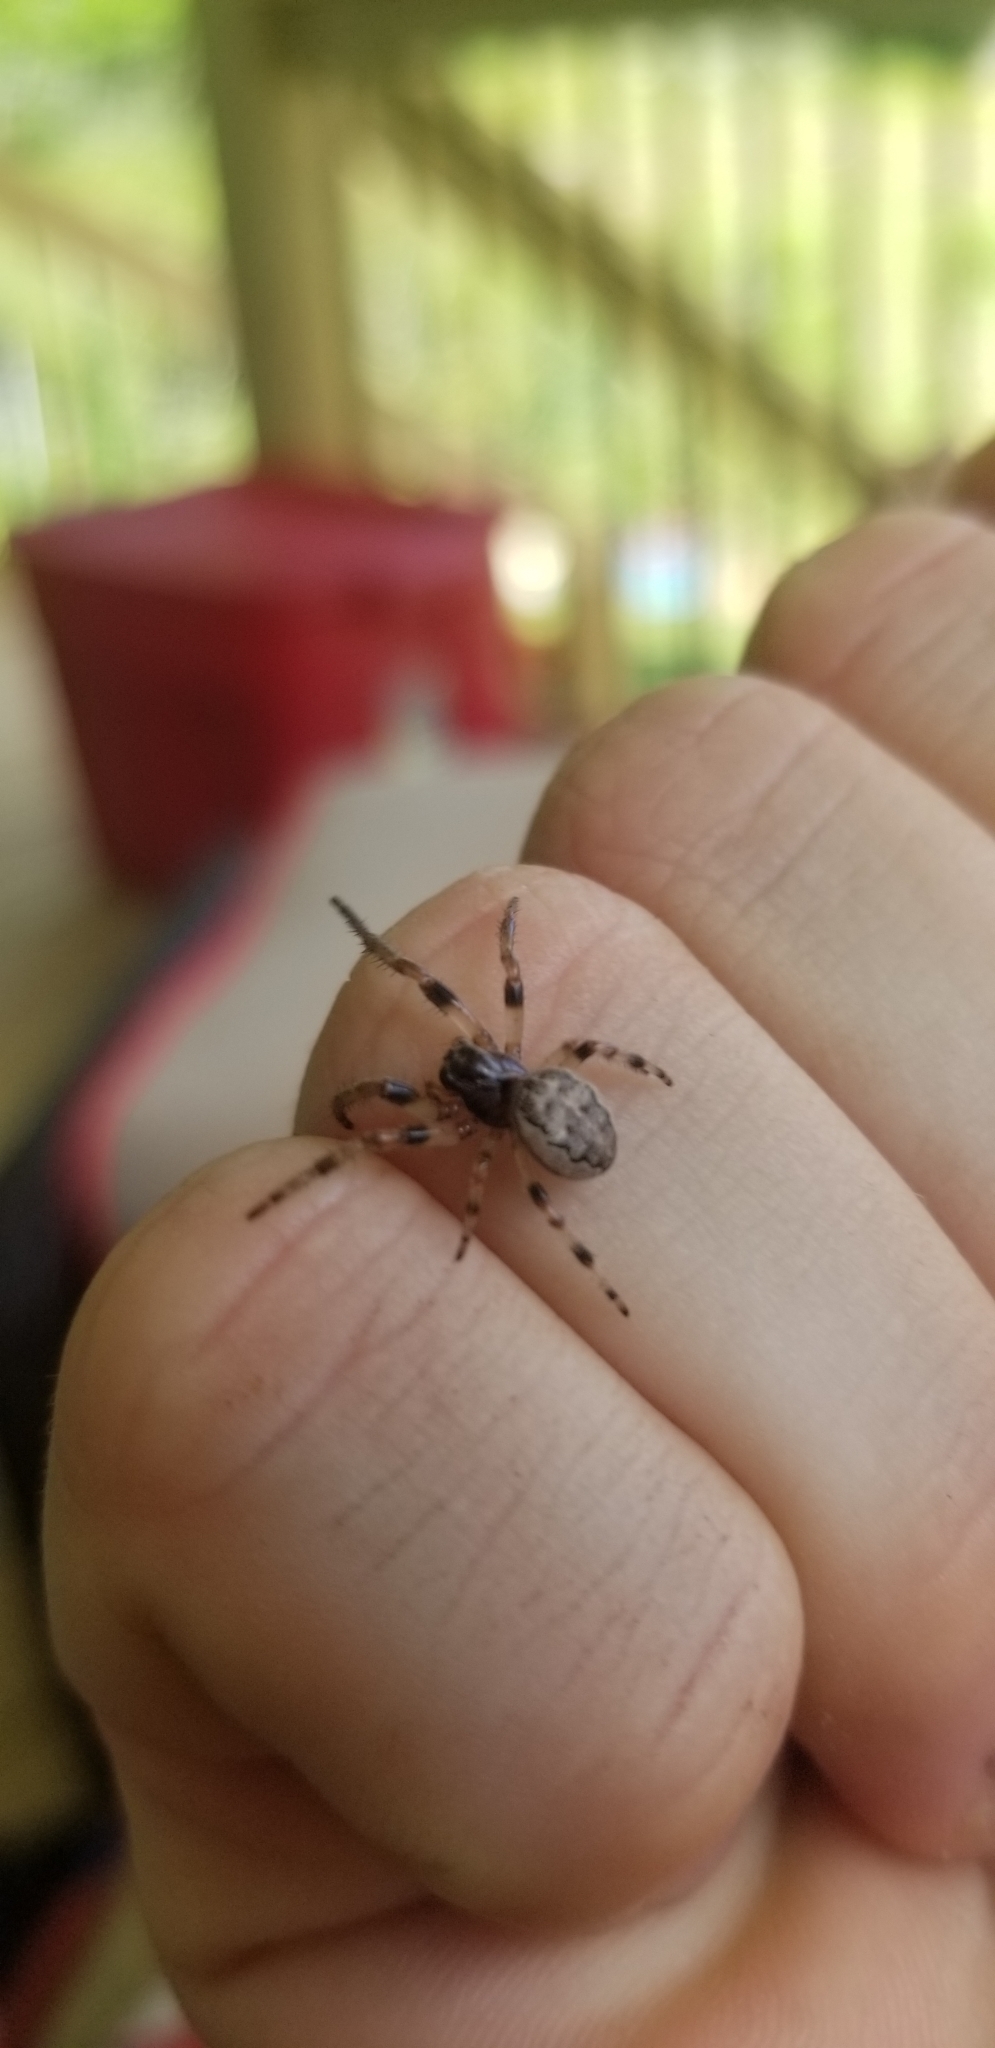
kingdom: Animalia
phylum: Arthropoda
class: Arachnida
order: Araneae
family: Araneidae
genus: Larinioides
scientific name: Larinioides cornutus
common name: Furrow orbweaver
